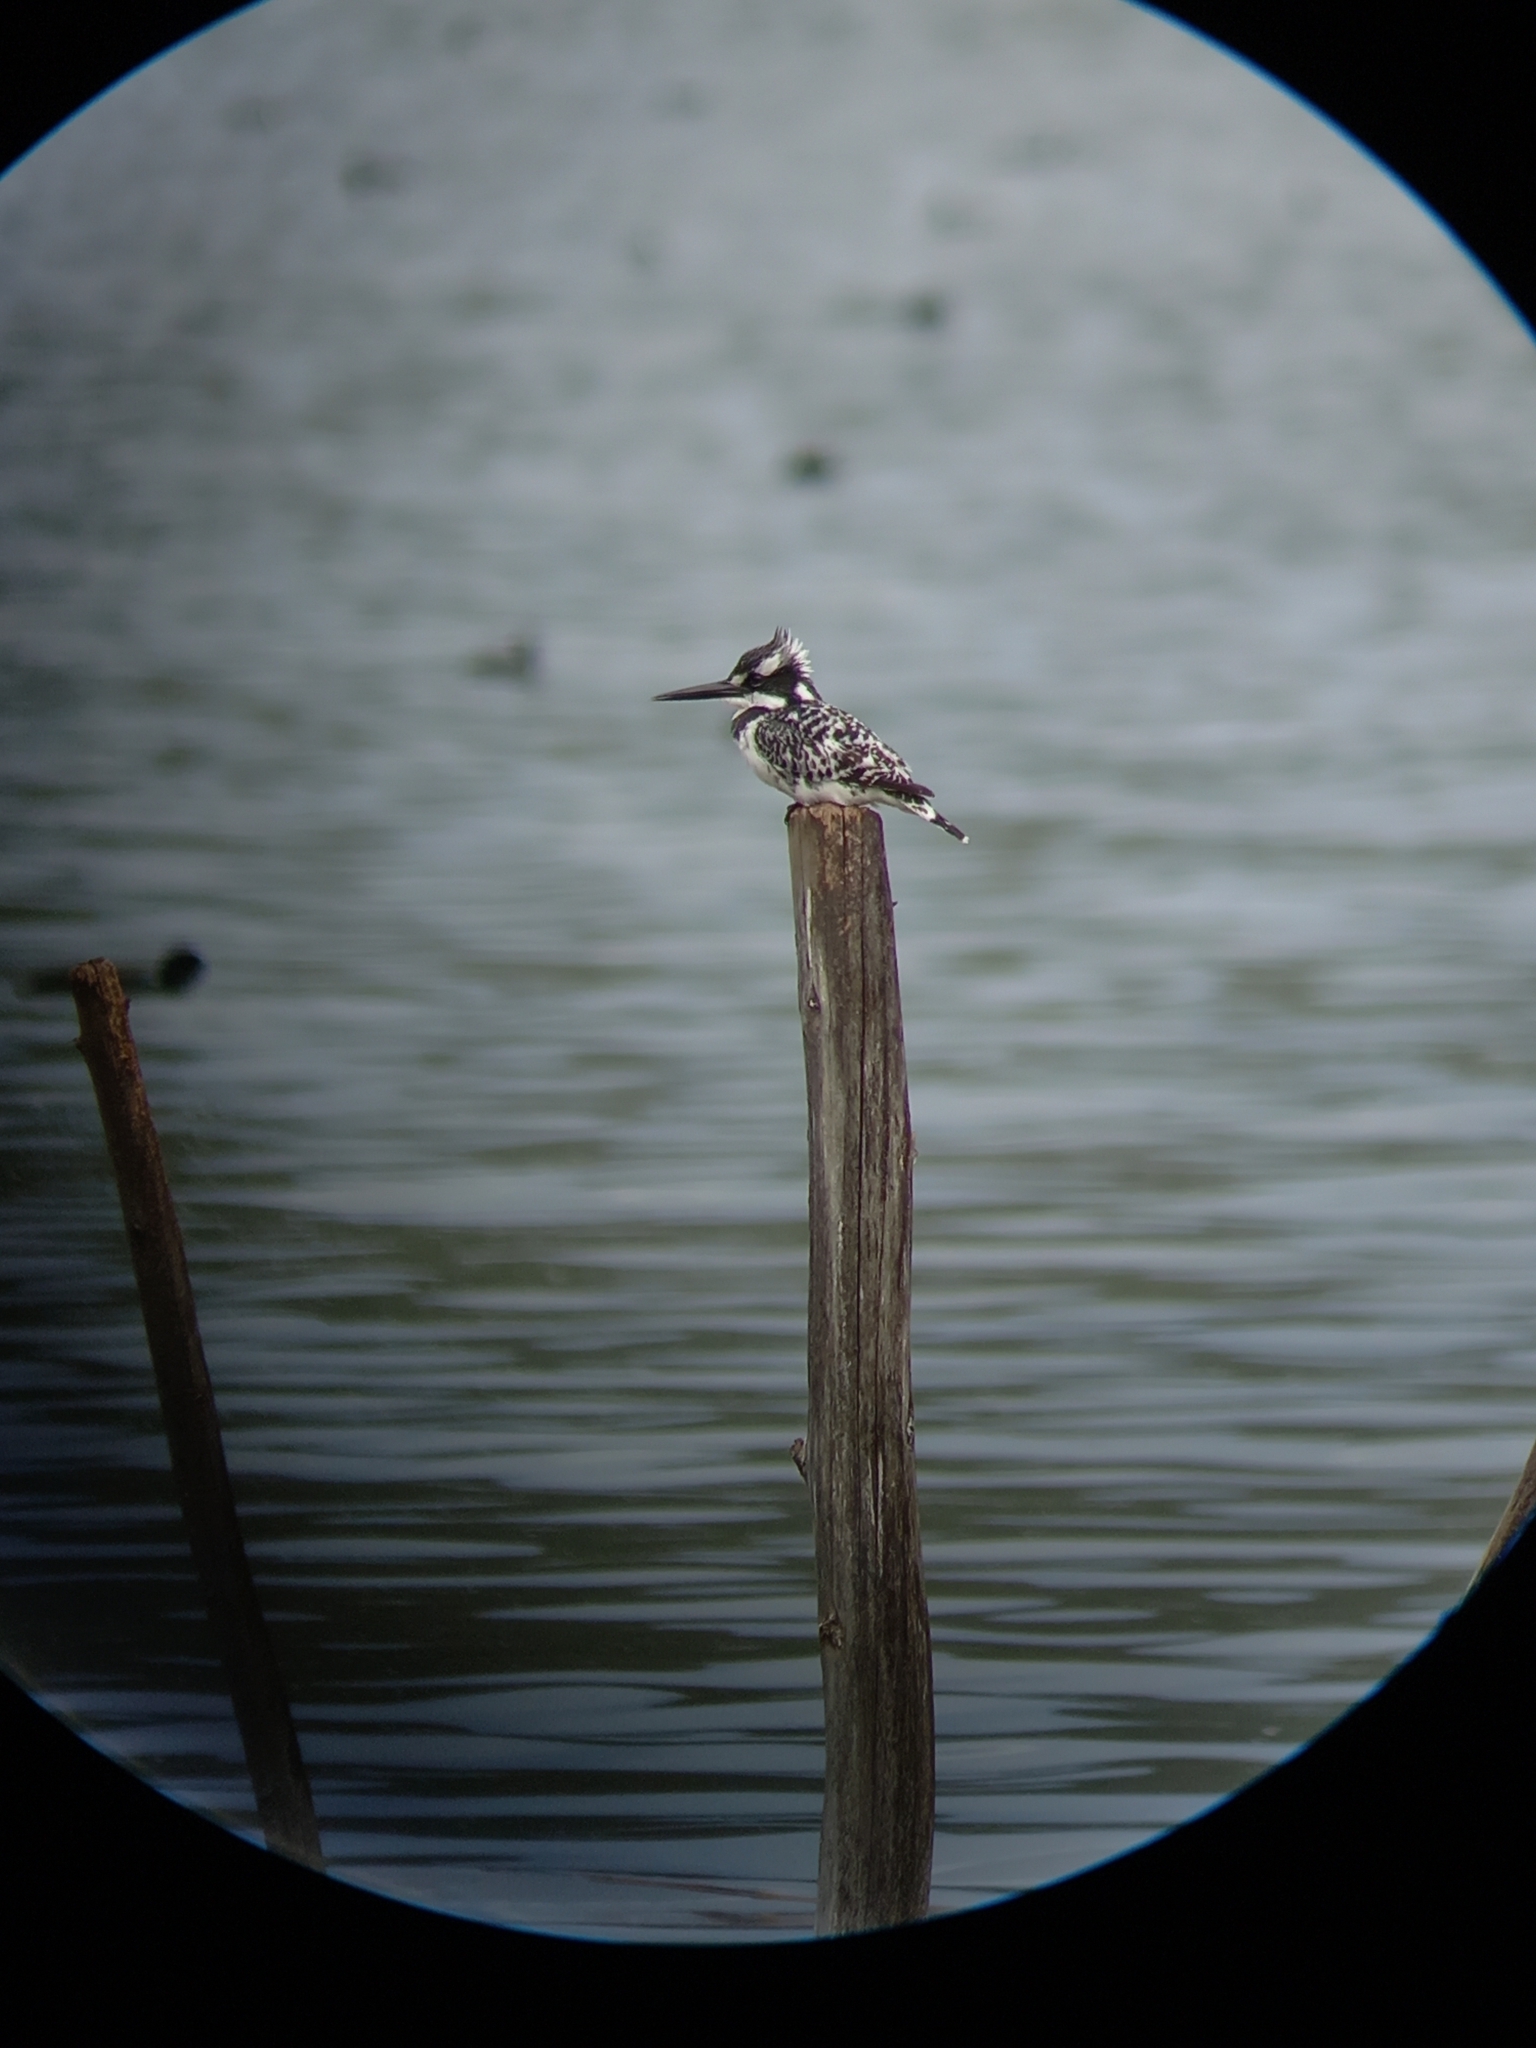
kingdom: Animalia
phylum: Chordata
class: Aves
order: Coraciiformes
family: Alcedinidae
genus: Ceryle
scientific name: Ceryle rudis
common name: Pied kingfisher
